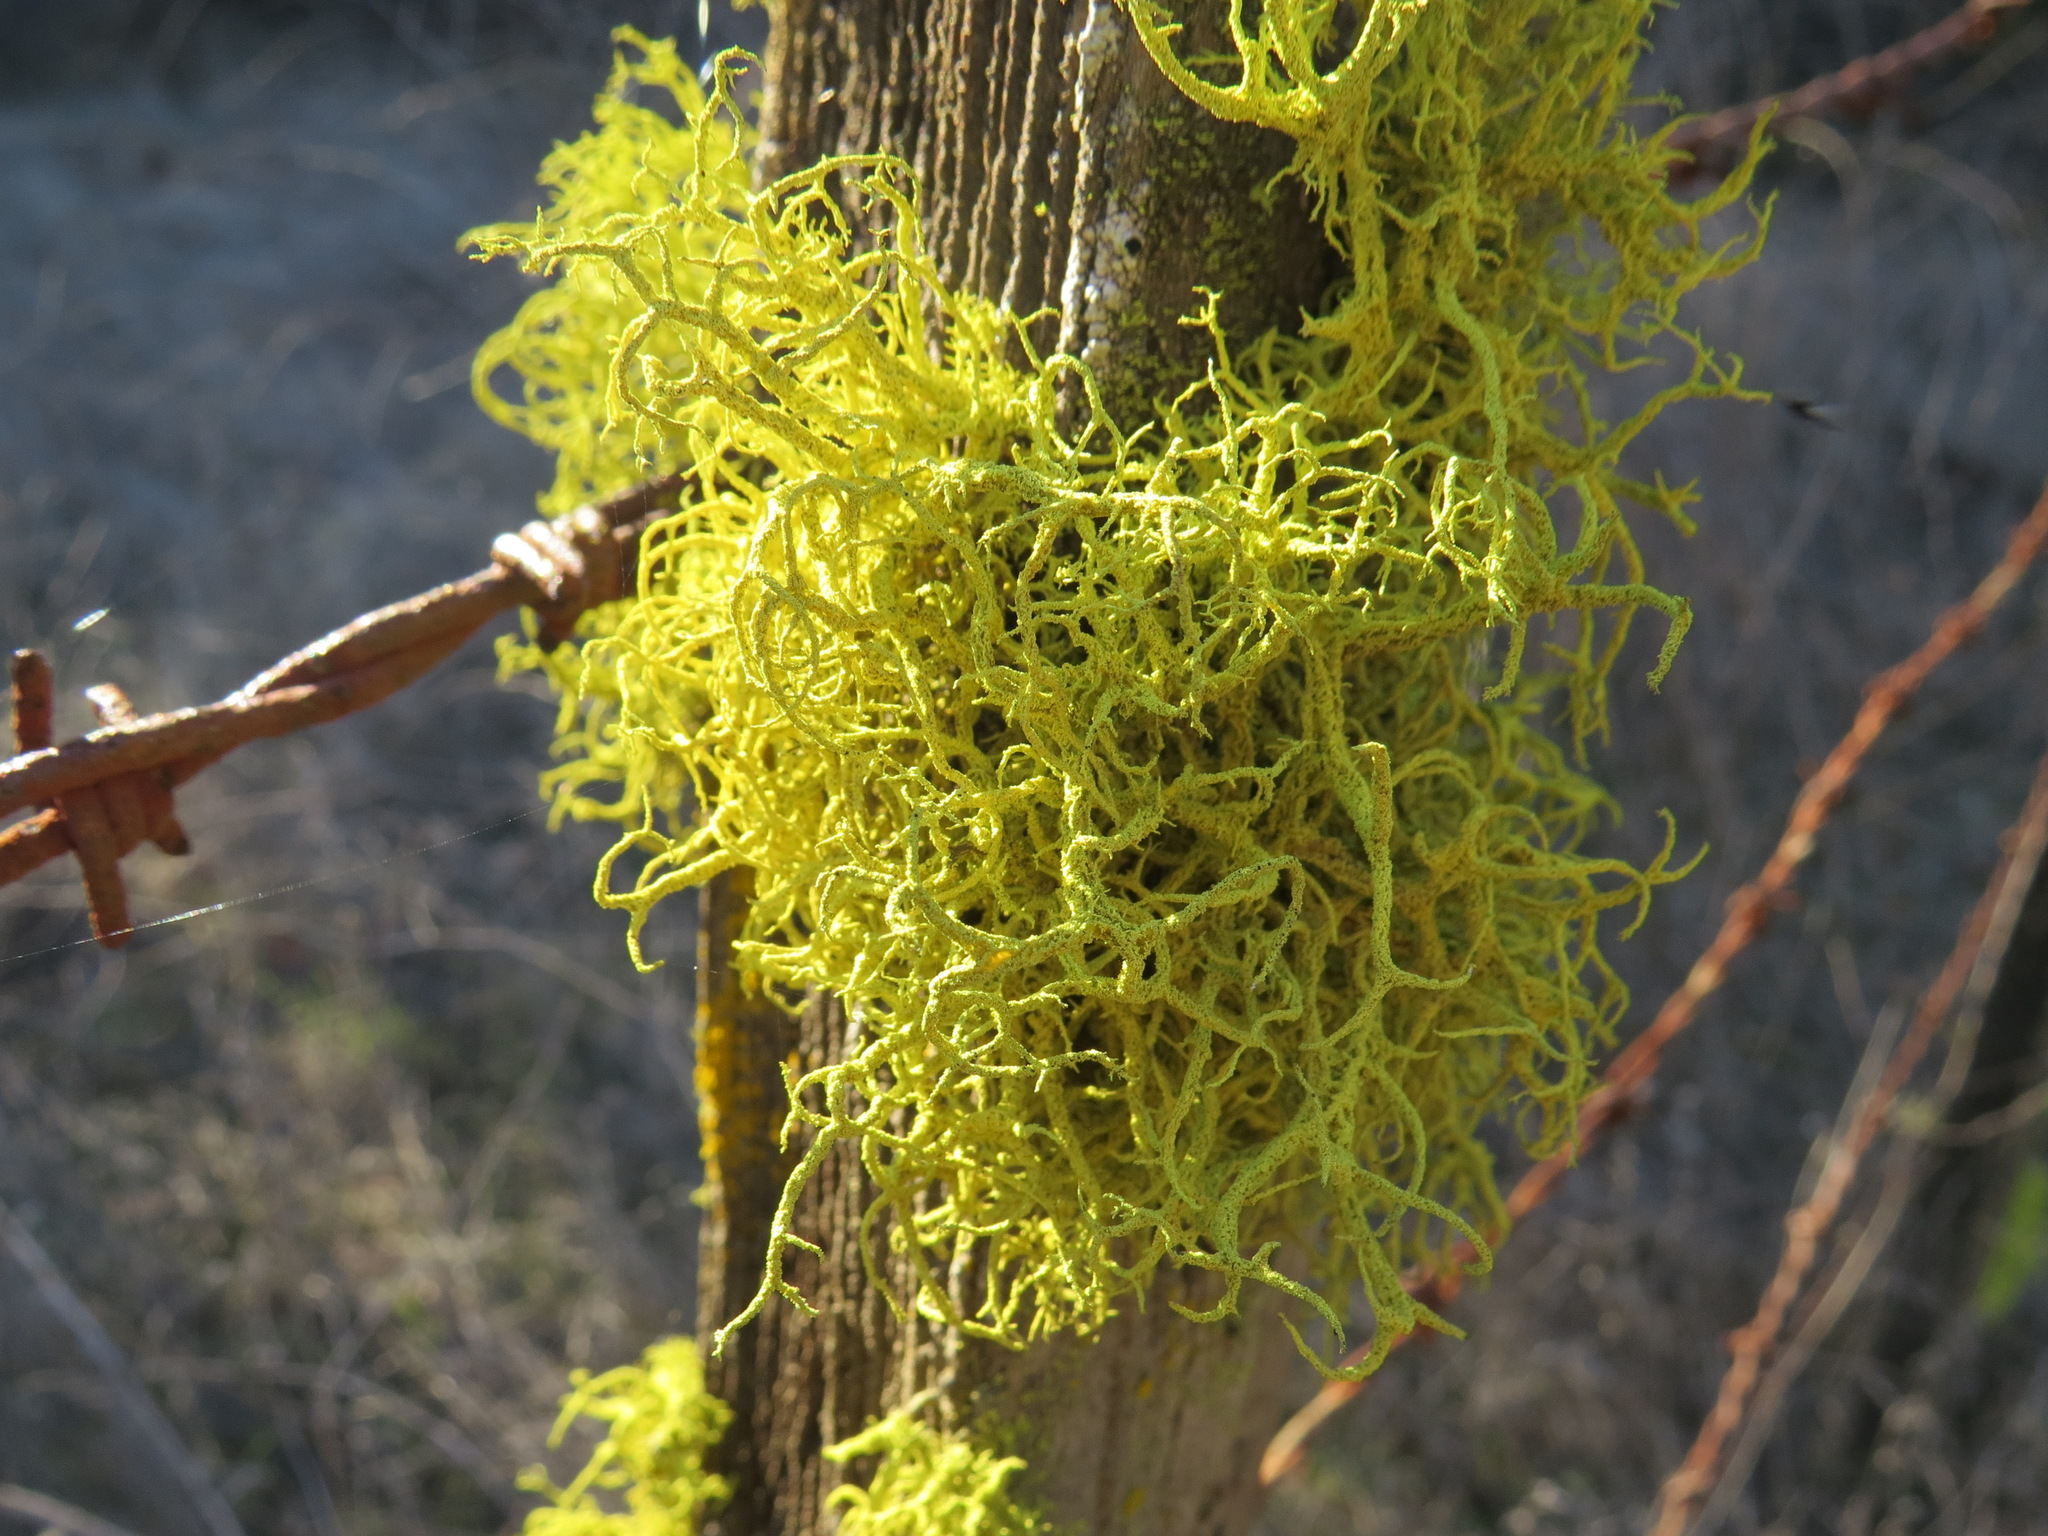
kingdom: Fungi
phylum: Ascomycota
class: Lecanoromycetes
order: Lecanorales
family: Parmeliaceae
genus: Letharia
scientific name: Letharia vulpina
